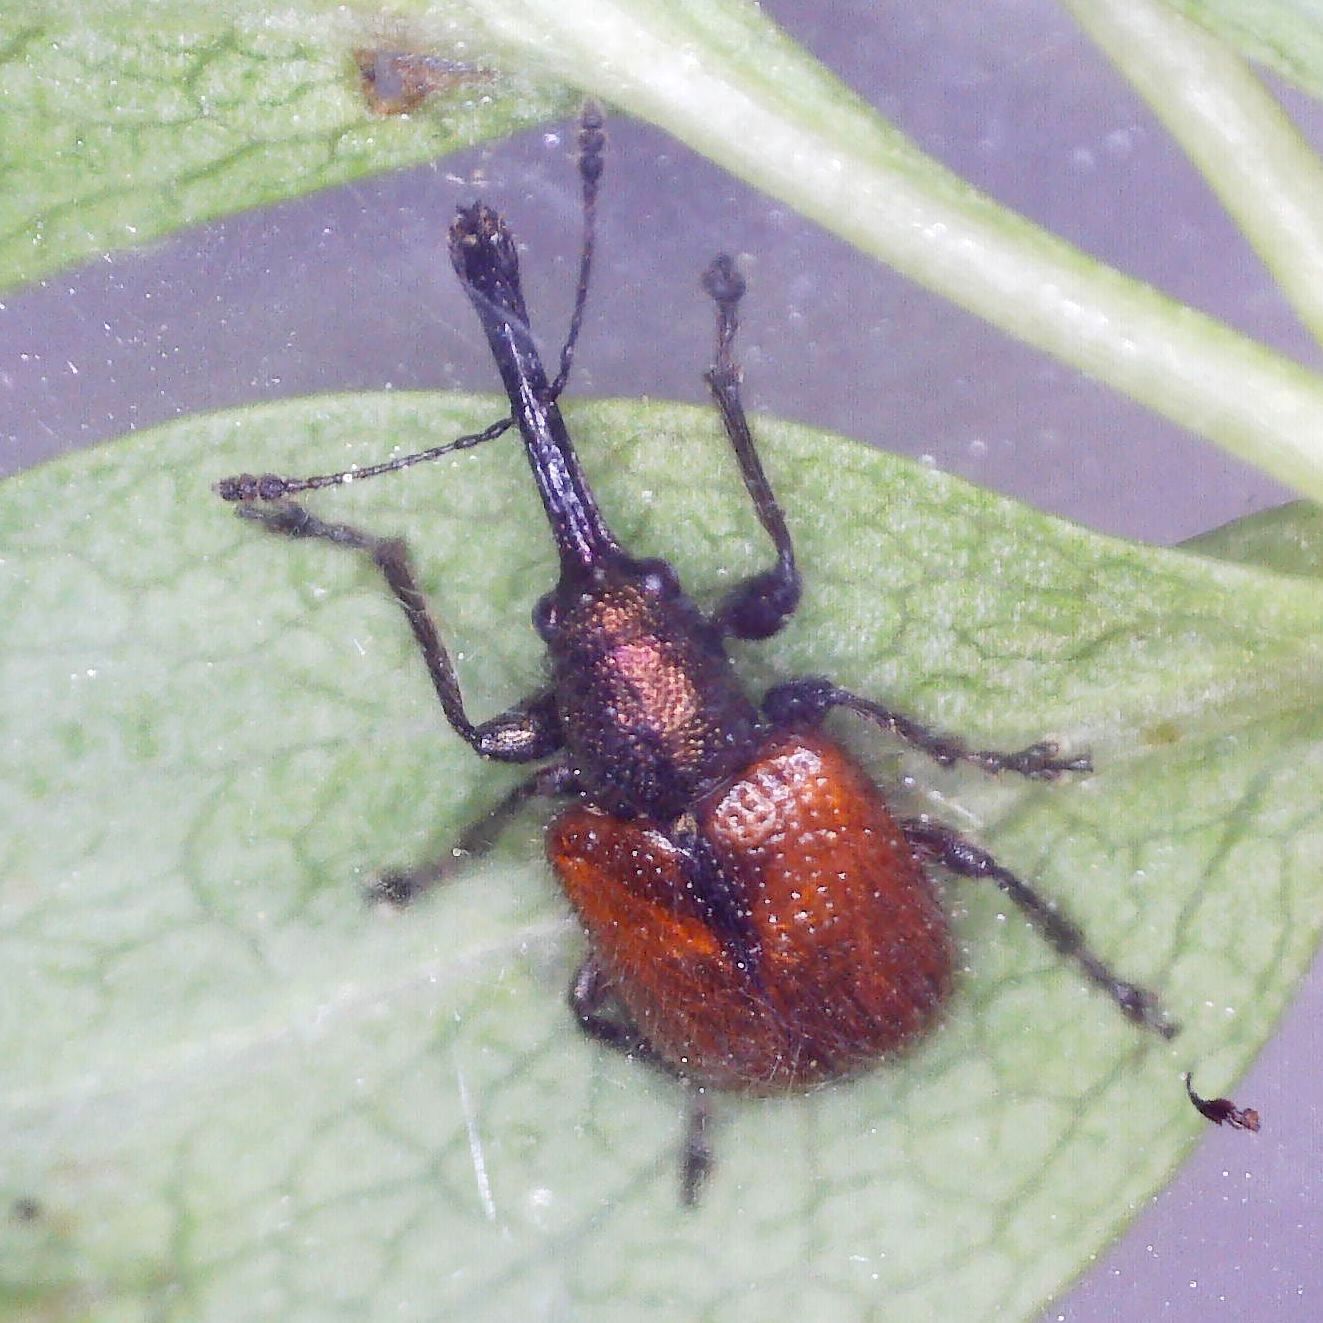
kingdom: Animalia
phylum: Arthropoda
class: Insecta
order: Coleoptera
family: Rhynchitidae
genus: Tatianaerhynchites
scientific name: Tatianaerhynchites aequatus
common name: Apple fruit rhynchites
